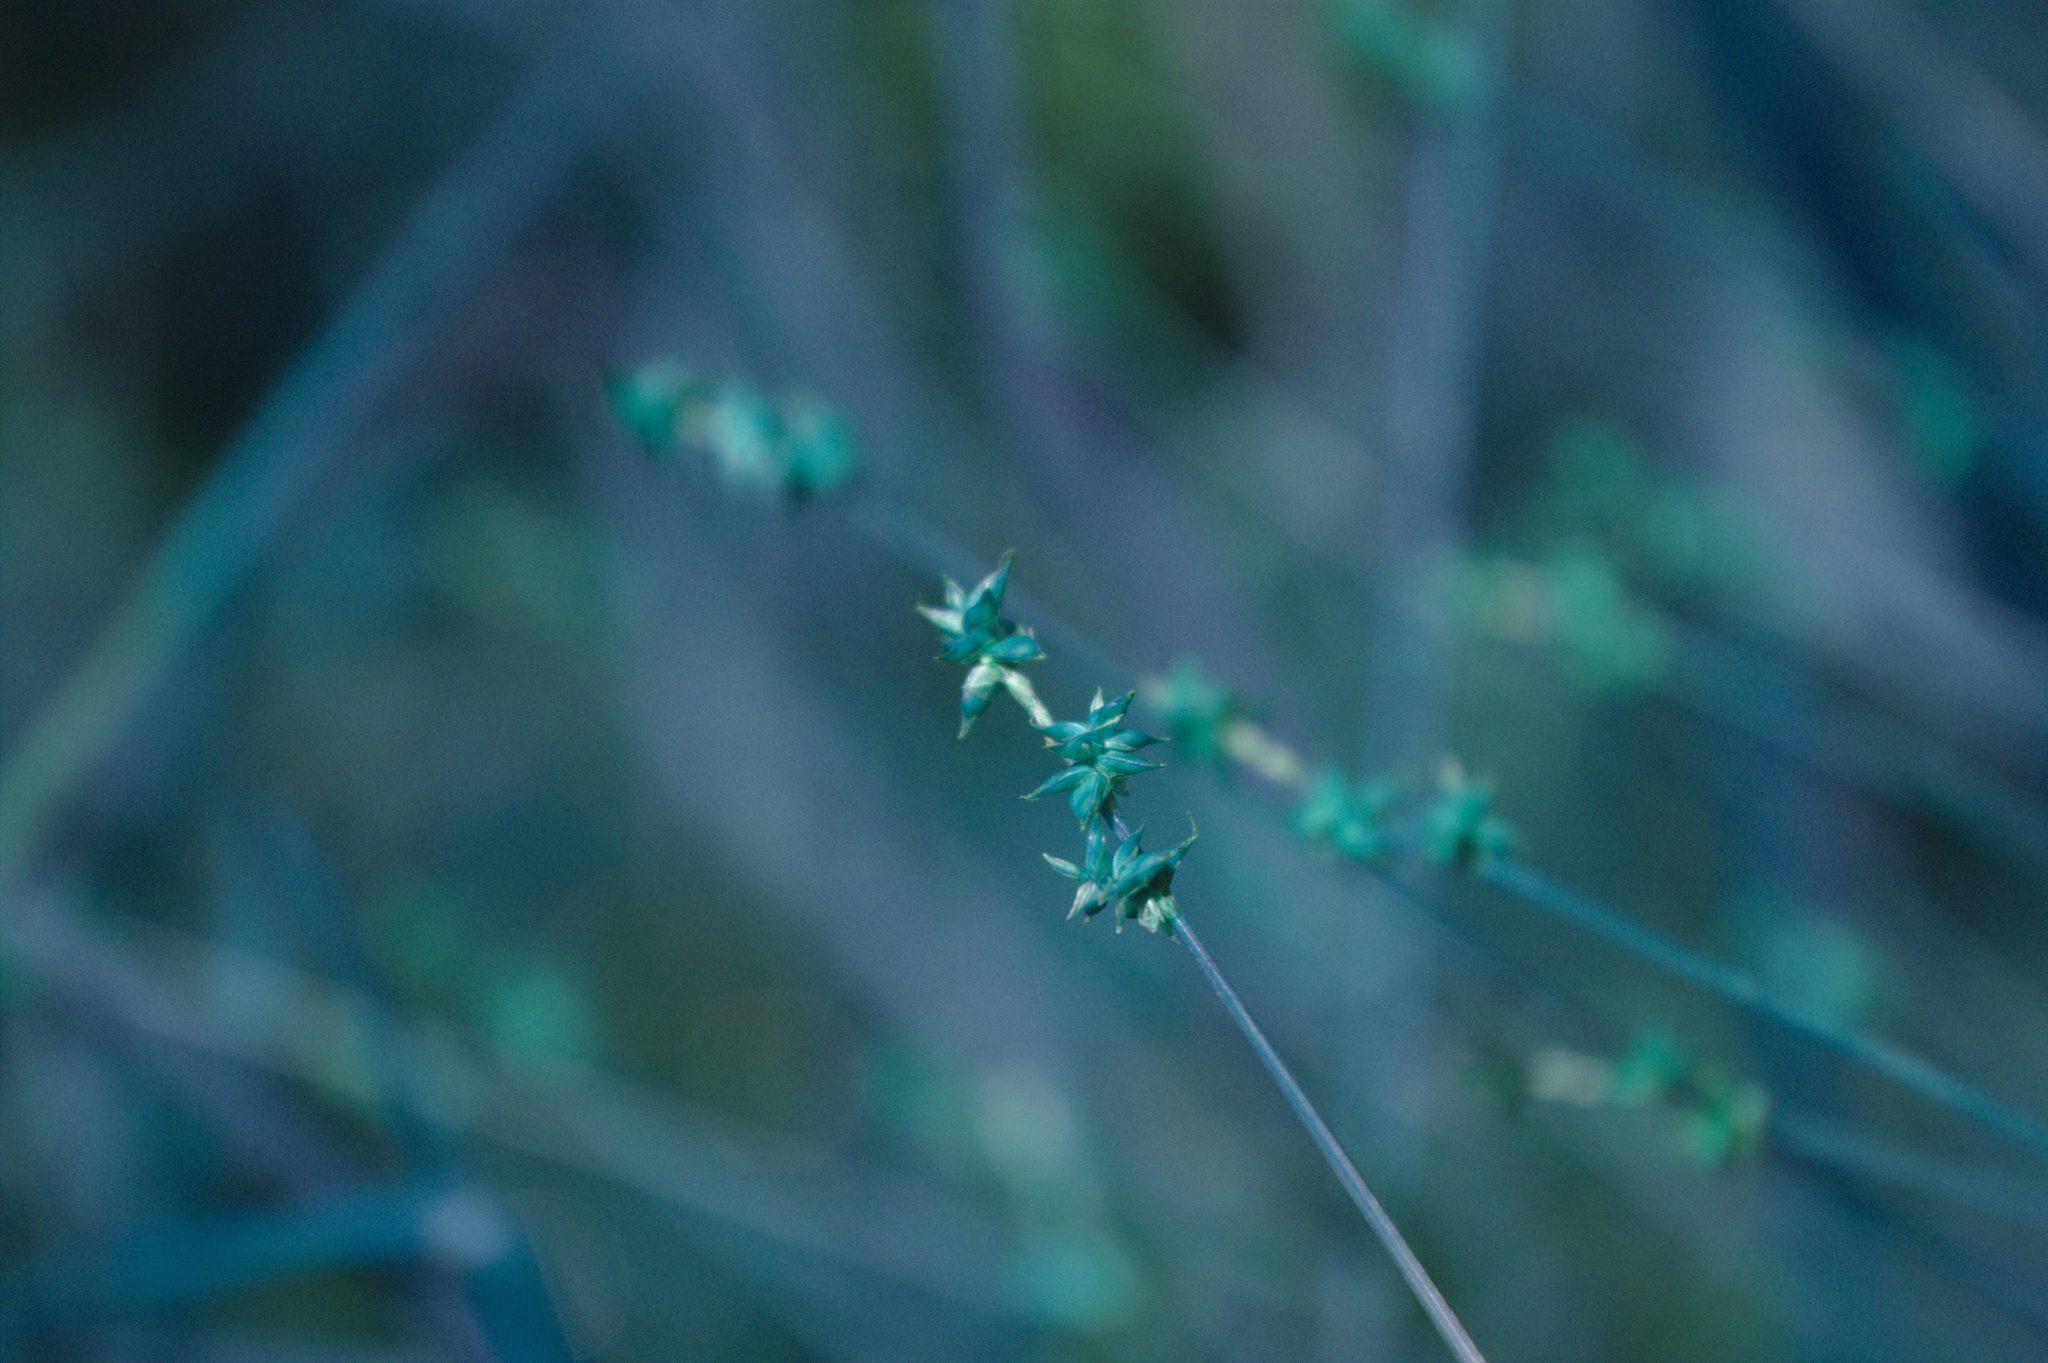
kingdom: Plantae
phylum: Tracheophyta
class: Liliopsida
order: Poales
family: Cyperaceae
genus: Carex
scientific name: Carex interior
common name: Inland sedge
